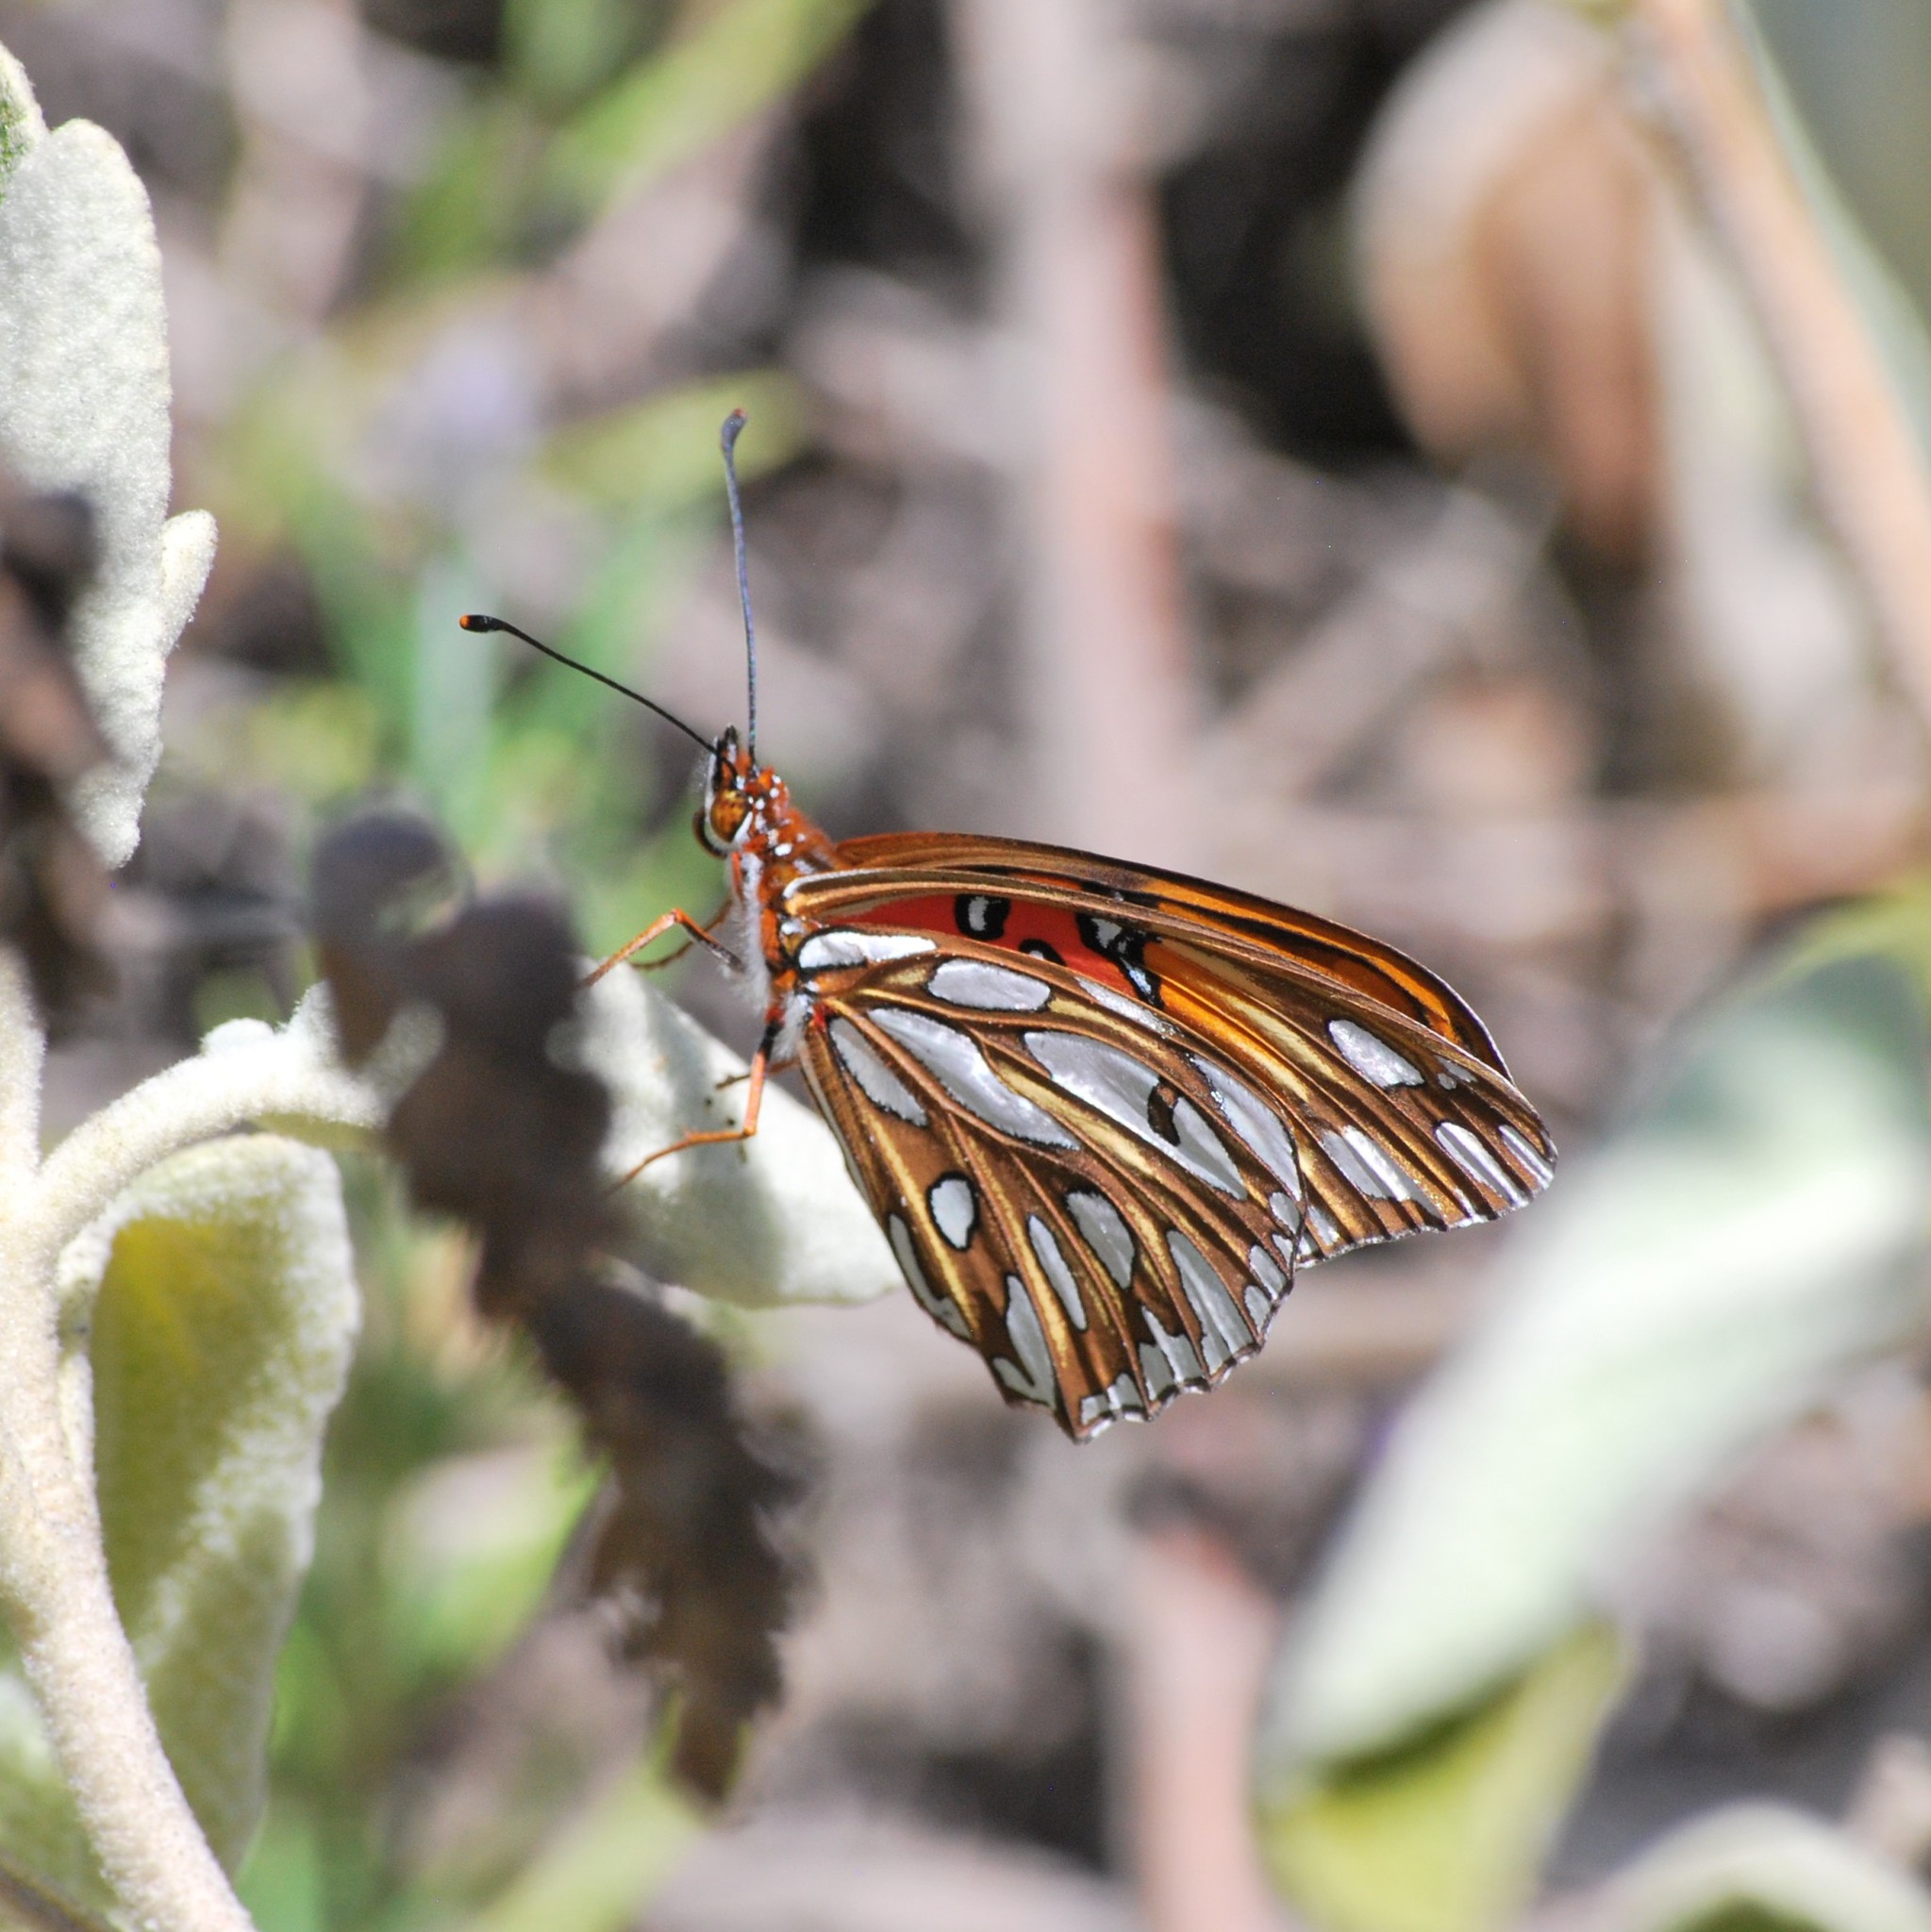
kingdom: Animalia
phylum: Arthropoda
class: Insecta
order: Lepidoptera
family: Nymphalidae
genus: Dione
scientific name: Dione vanillae
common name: Gulf fritillary
